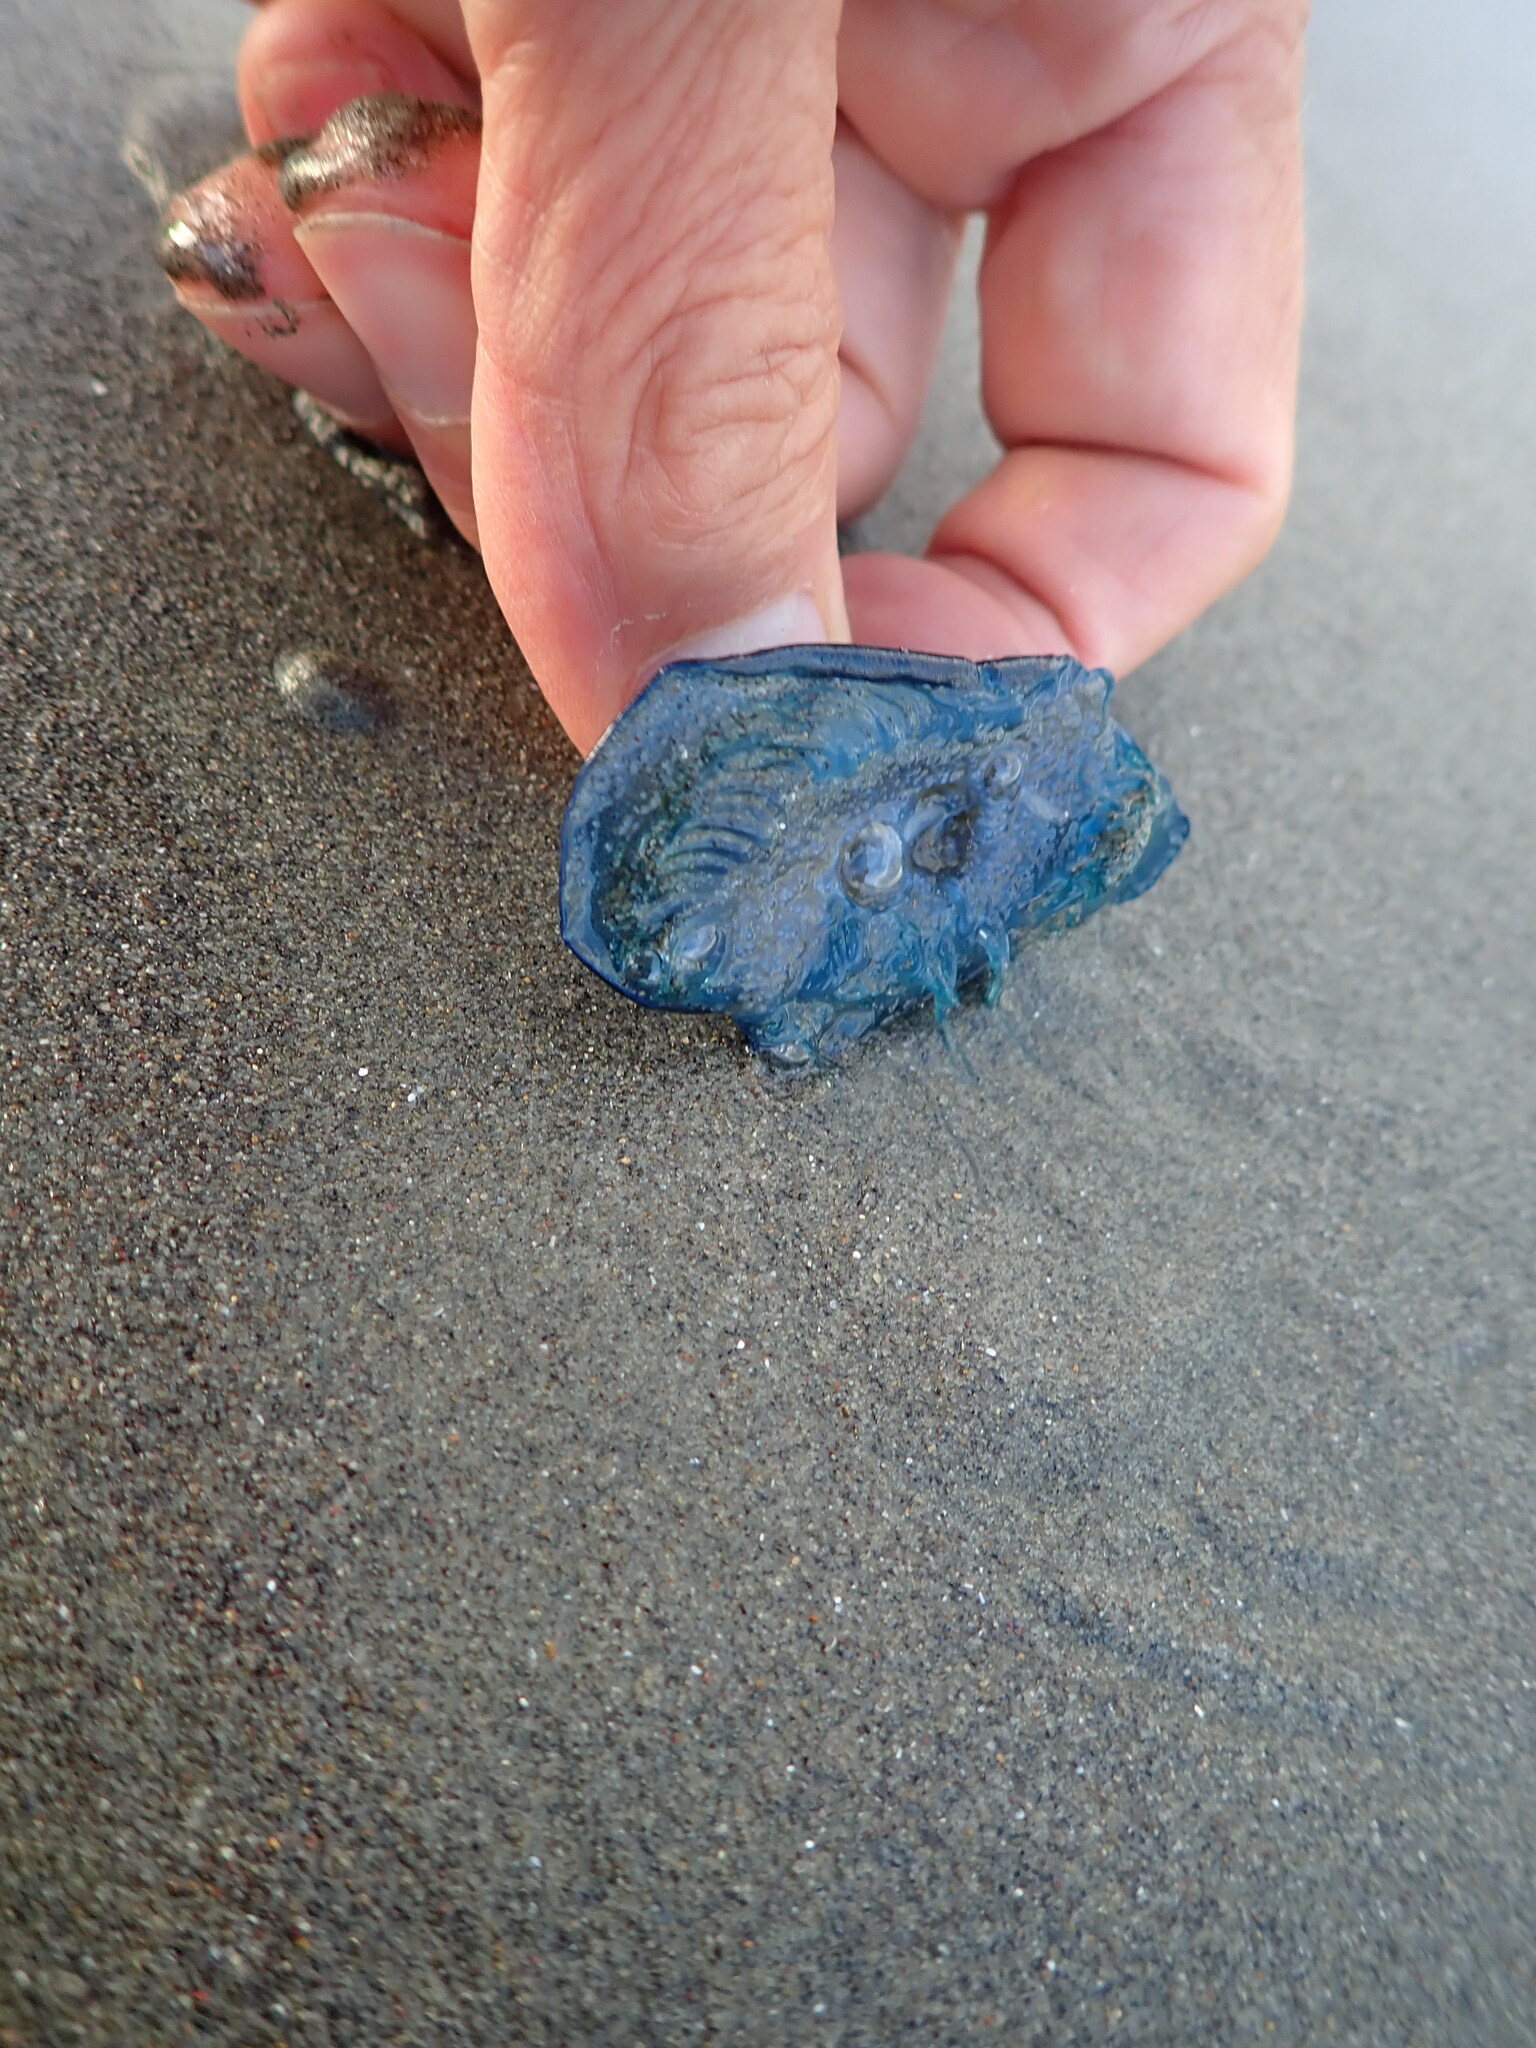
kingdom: Animalia
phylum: Cnidaria
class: Hydrozoa
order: Anthoathecata
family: Porpitidae
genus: Velella
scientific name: Velella velella
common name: By-the-wind-sailor
